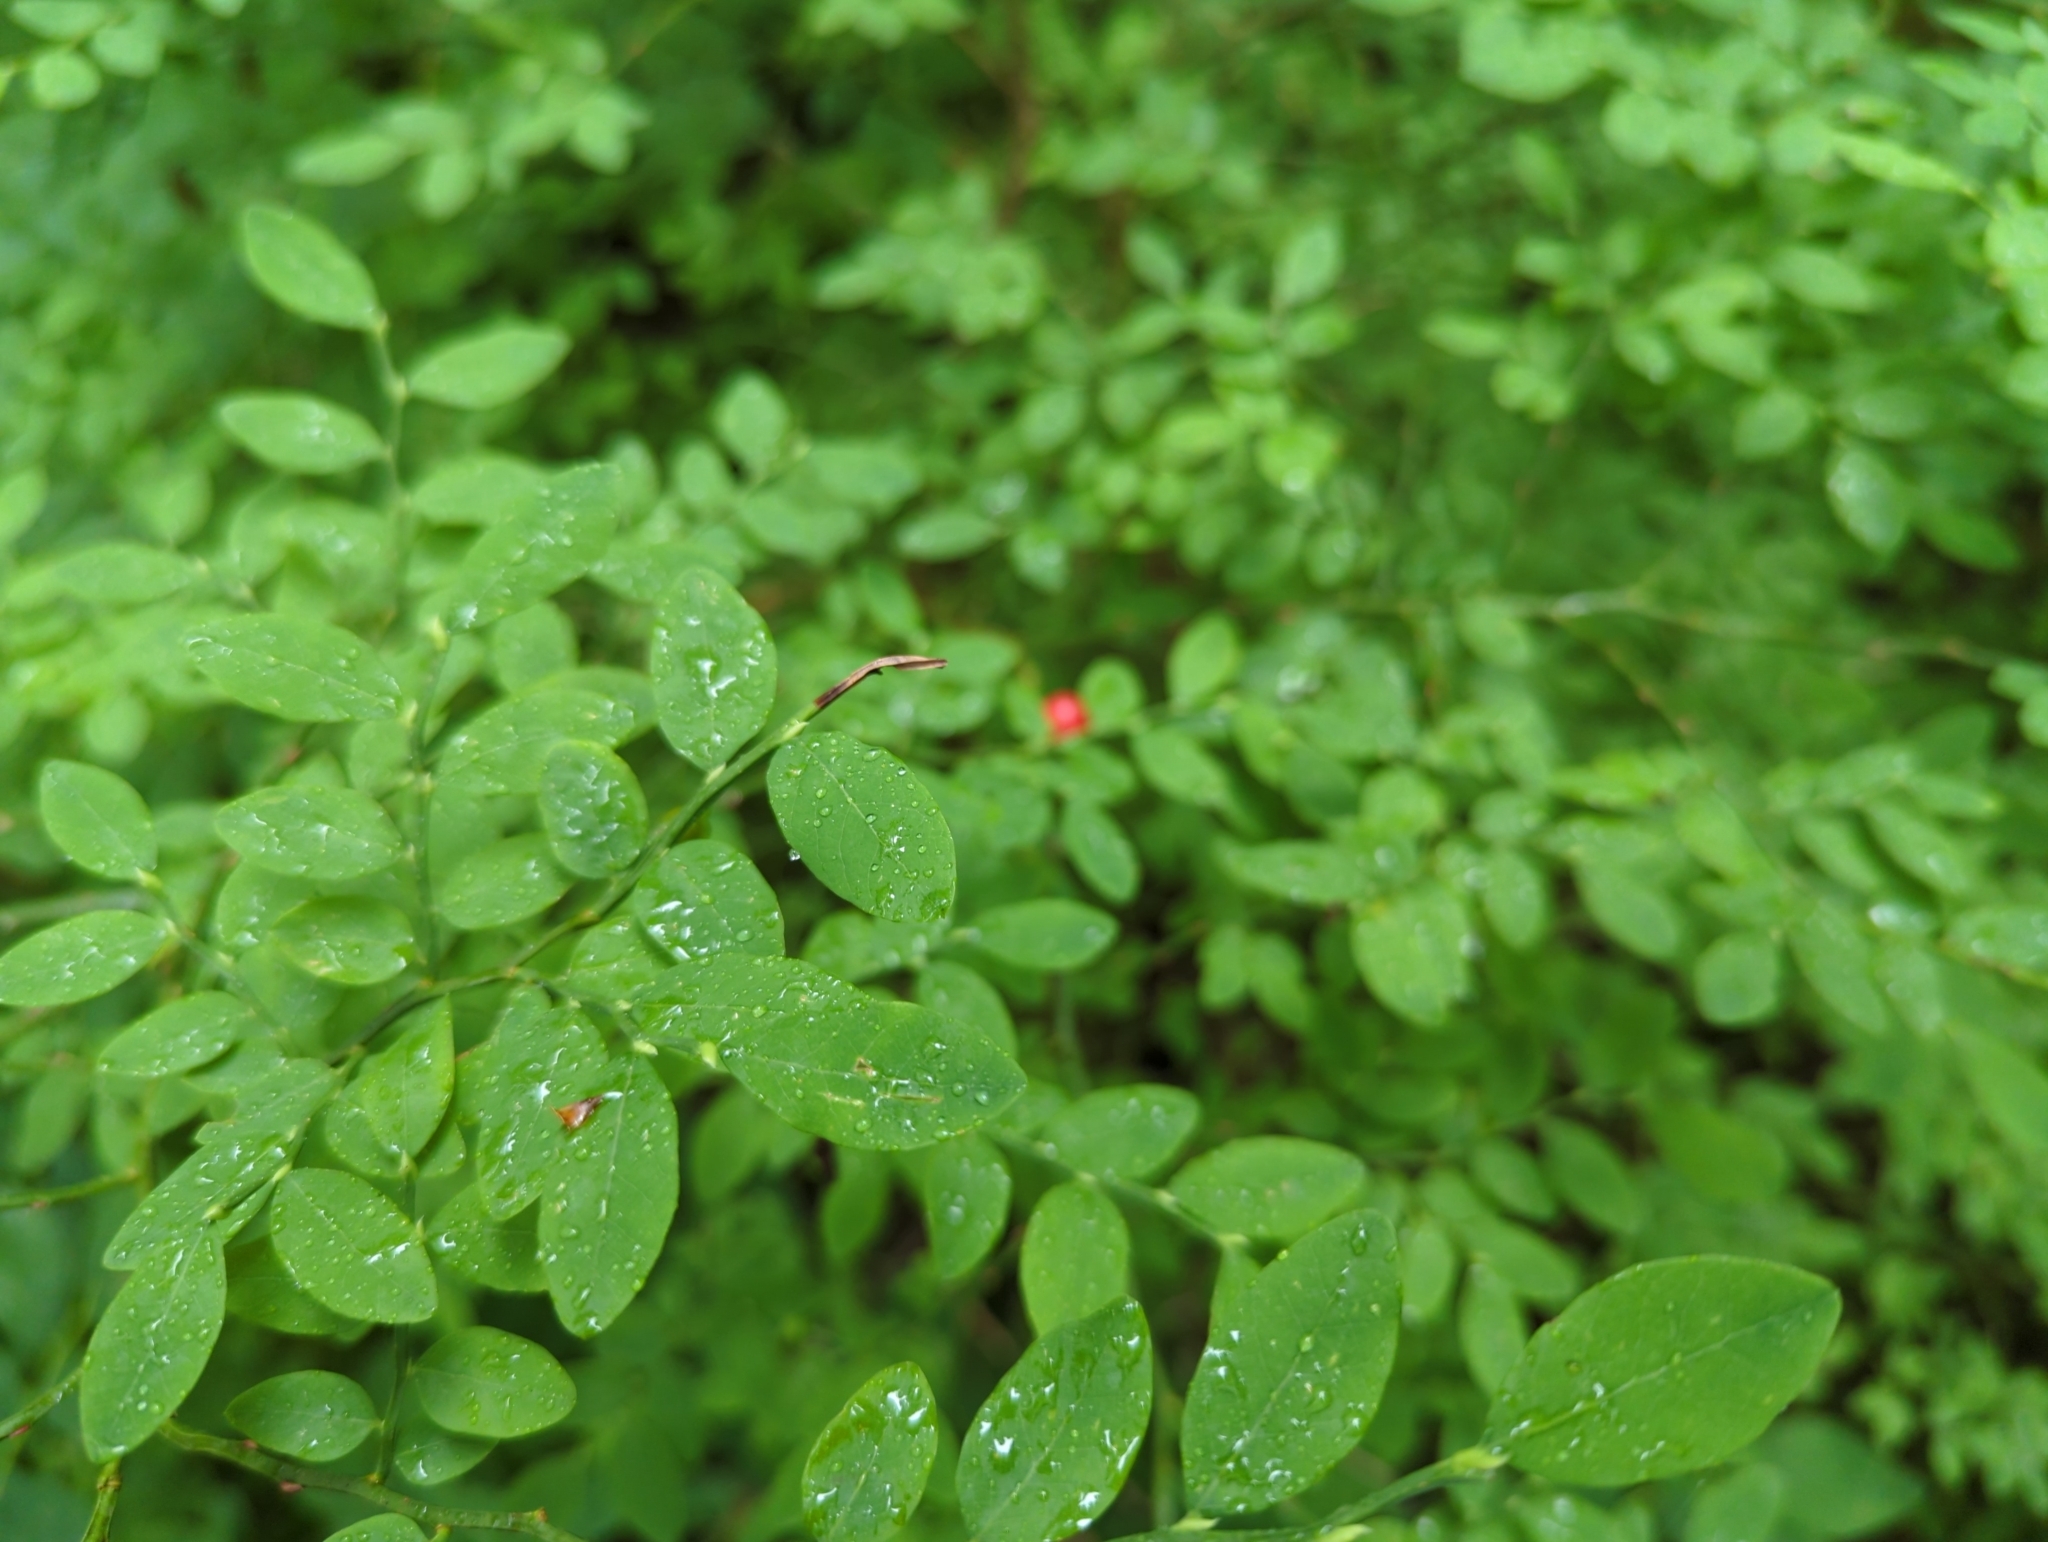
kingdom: Plantae
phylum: Tracheophyta
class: Magnoliopsida
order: Ericales
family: Ericaceae
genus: Vaccinium
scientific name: Vaccinium parvifolium
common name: Red-huckleberry
